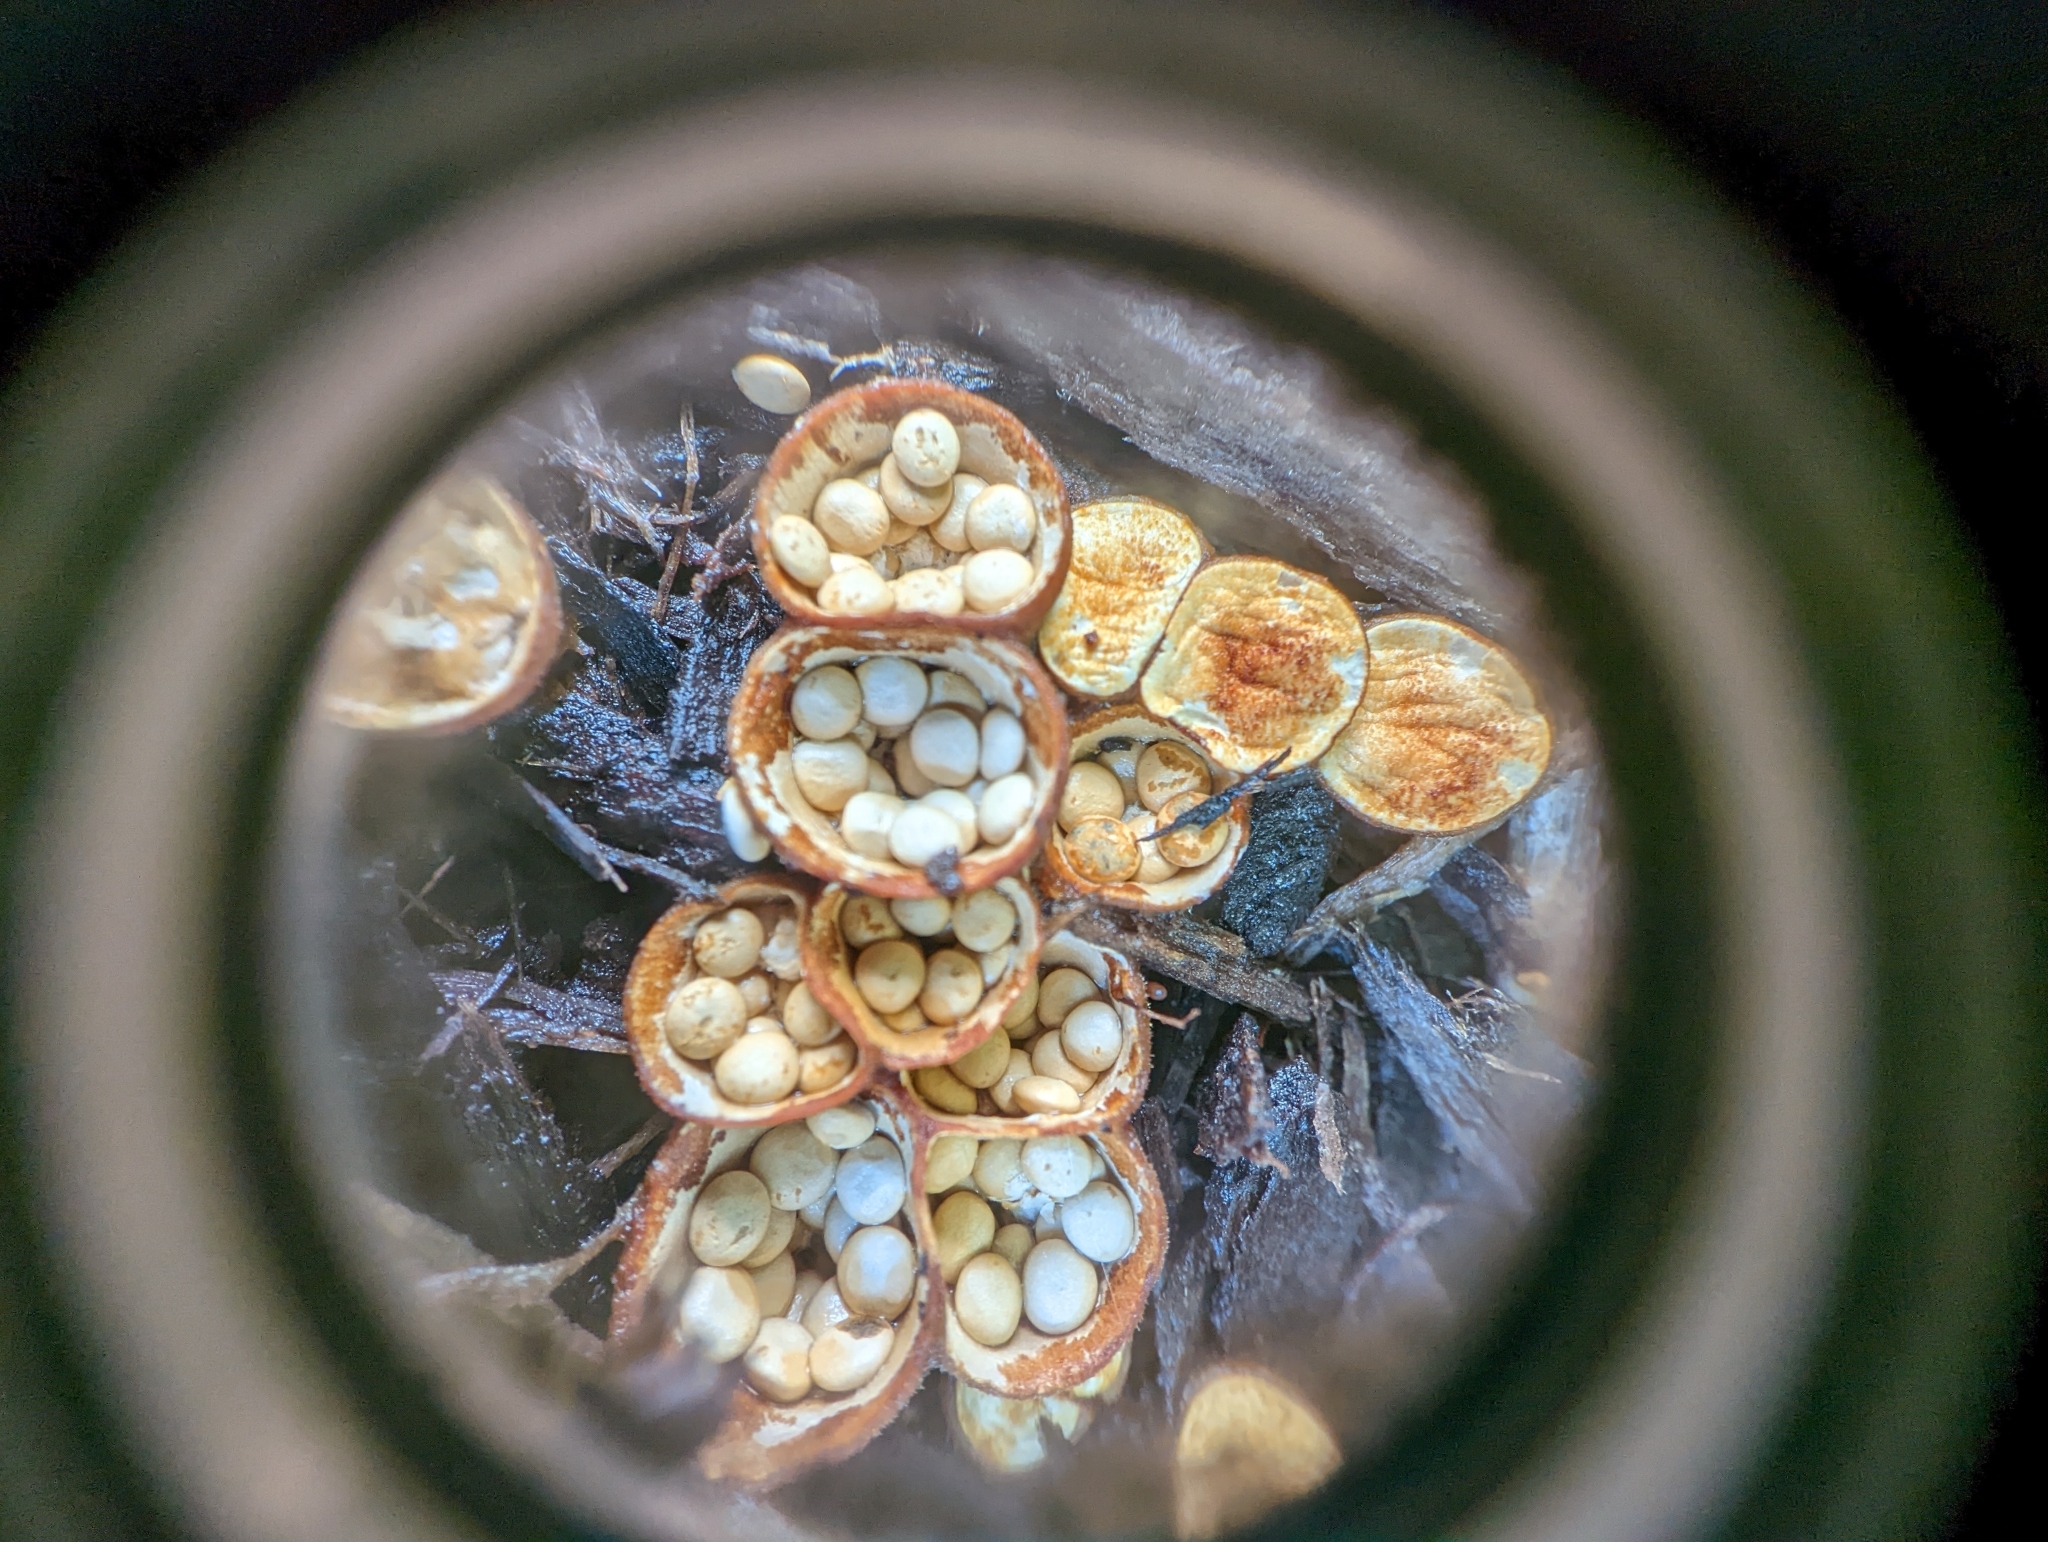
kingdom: Fungi
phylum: Basidiomycota
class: Agaricomycetes
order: Agaricales
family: Nidulariaceae
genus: Crucibulum
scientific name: Crucibulum laeve
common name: Common bird's nest
